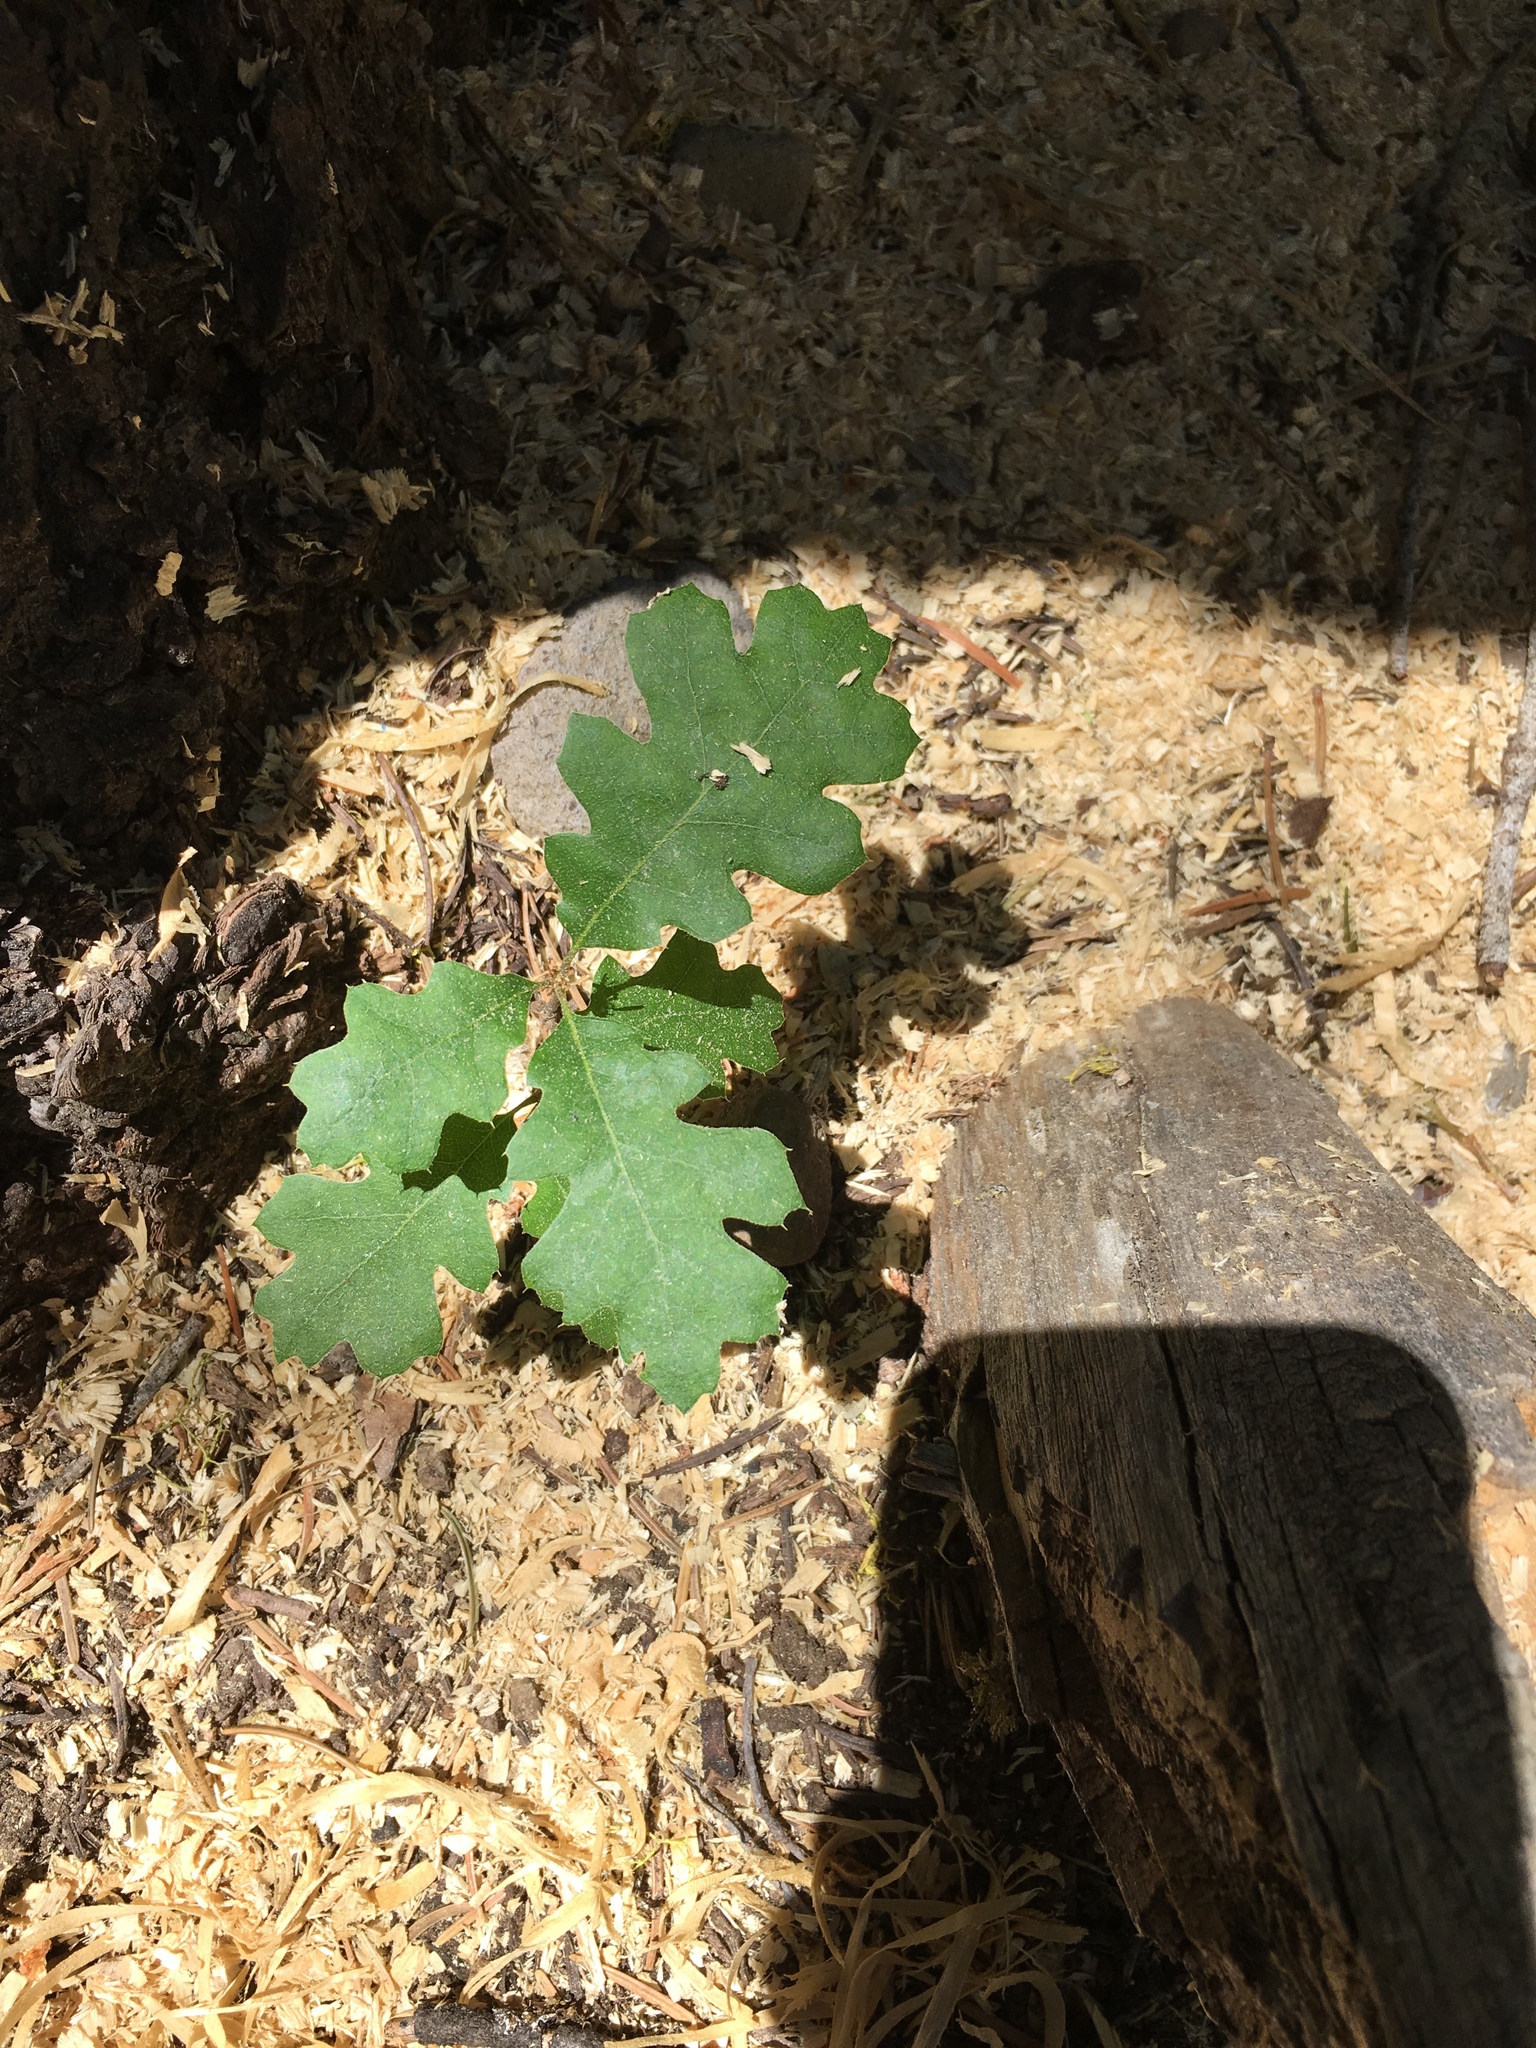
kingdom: Plantae
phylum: Tracheophyta
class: Magnoliopsida
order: Fagales
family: Fagaceae
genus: Quercus
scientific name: Quercus kelloggii
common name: California black oak
